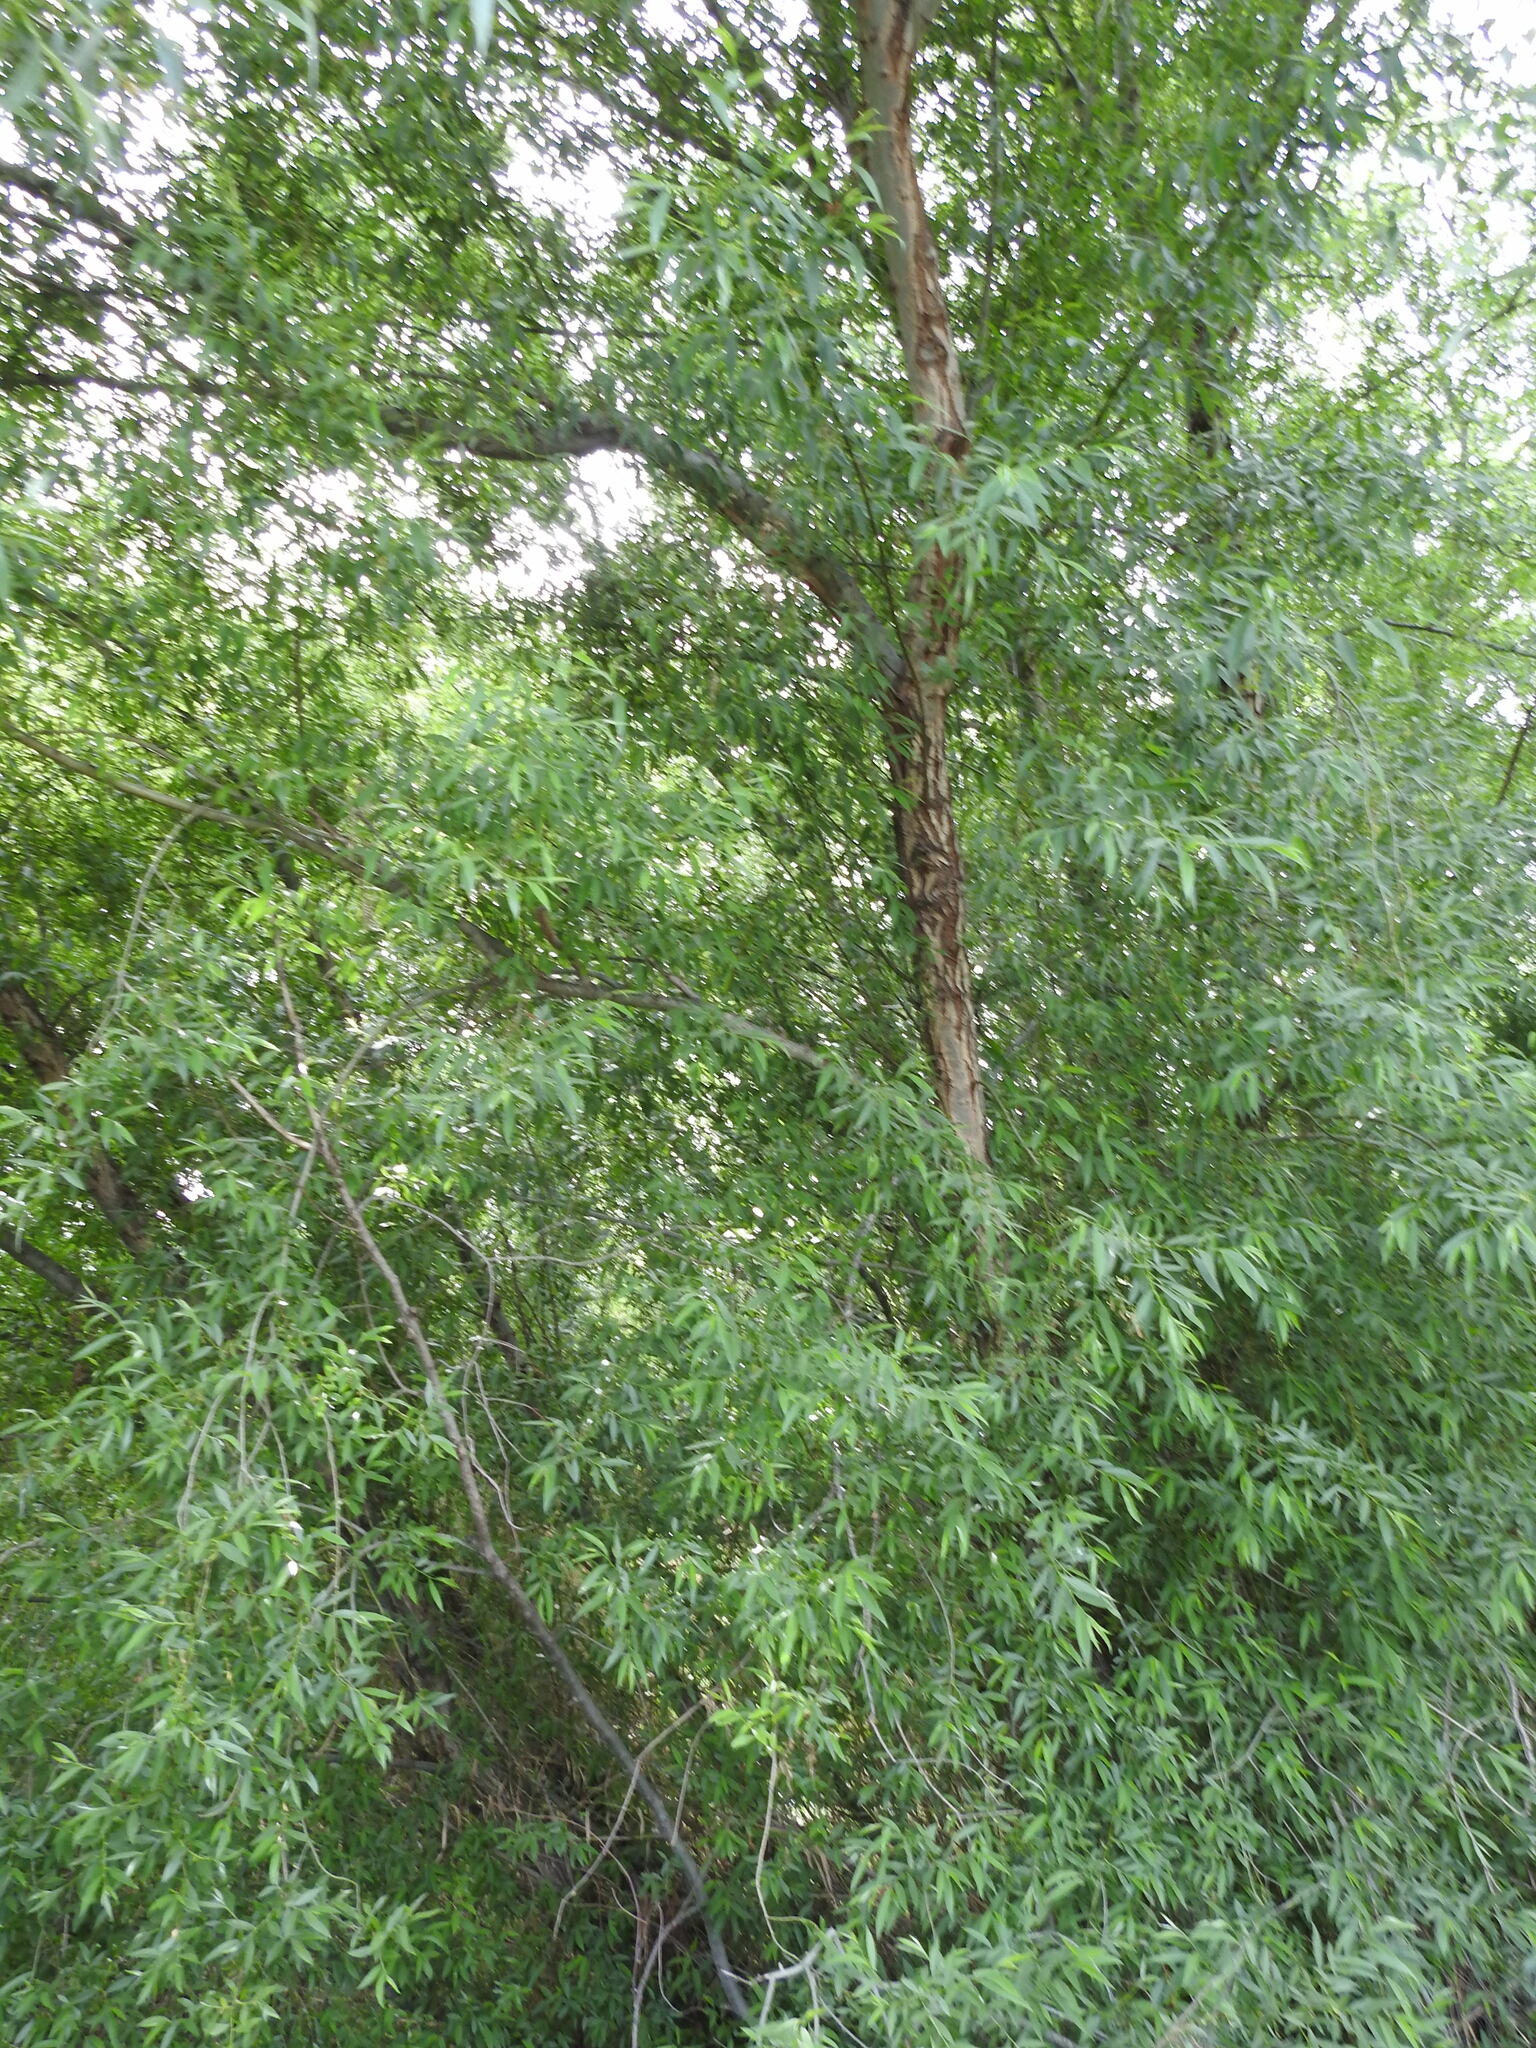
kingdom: Plantae
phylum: Tracheophyta
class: Magnoliopsida
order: Malpighiales
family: Salicaceae
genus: Salix
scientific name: Salix alba
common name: White willow
